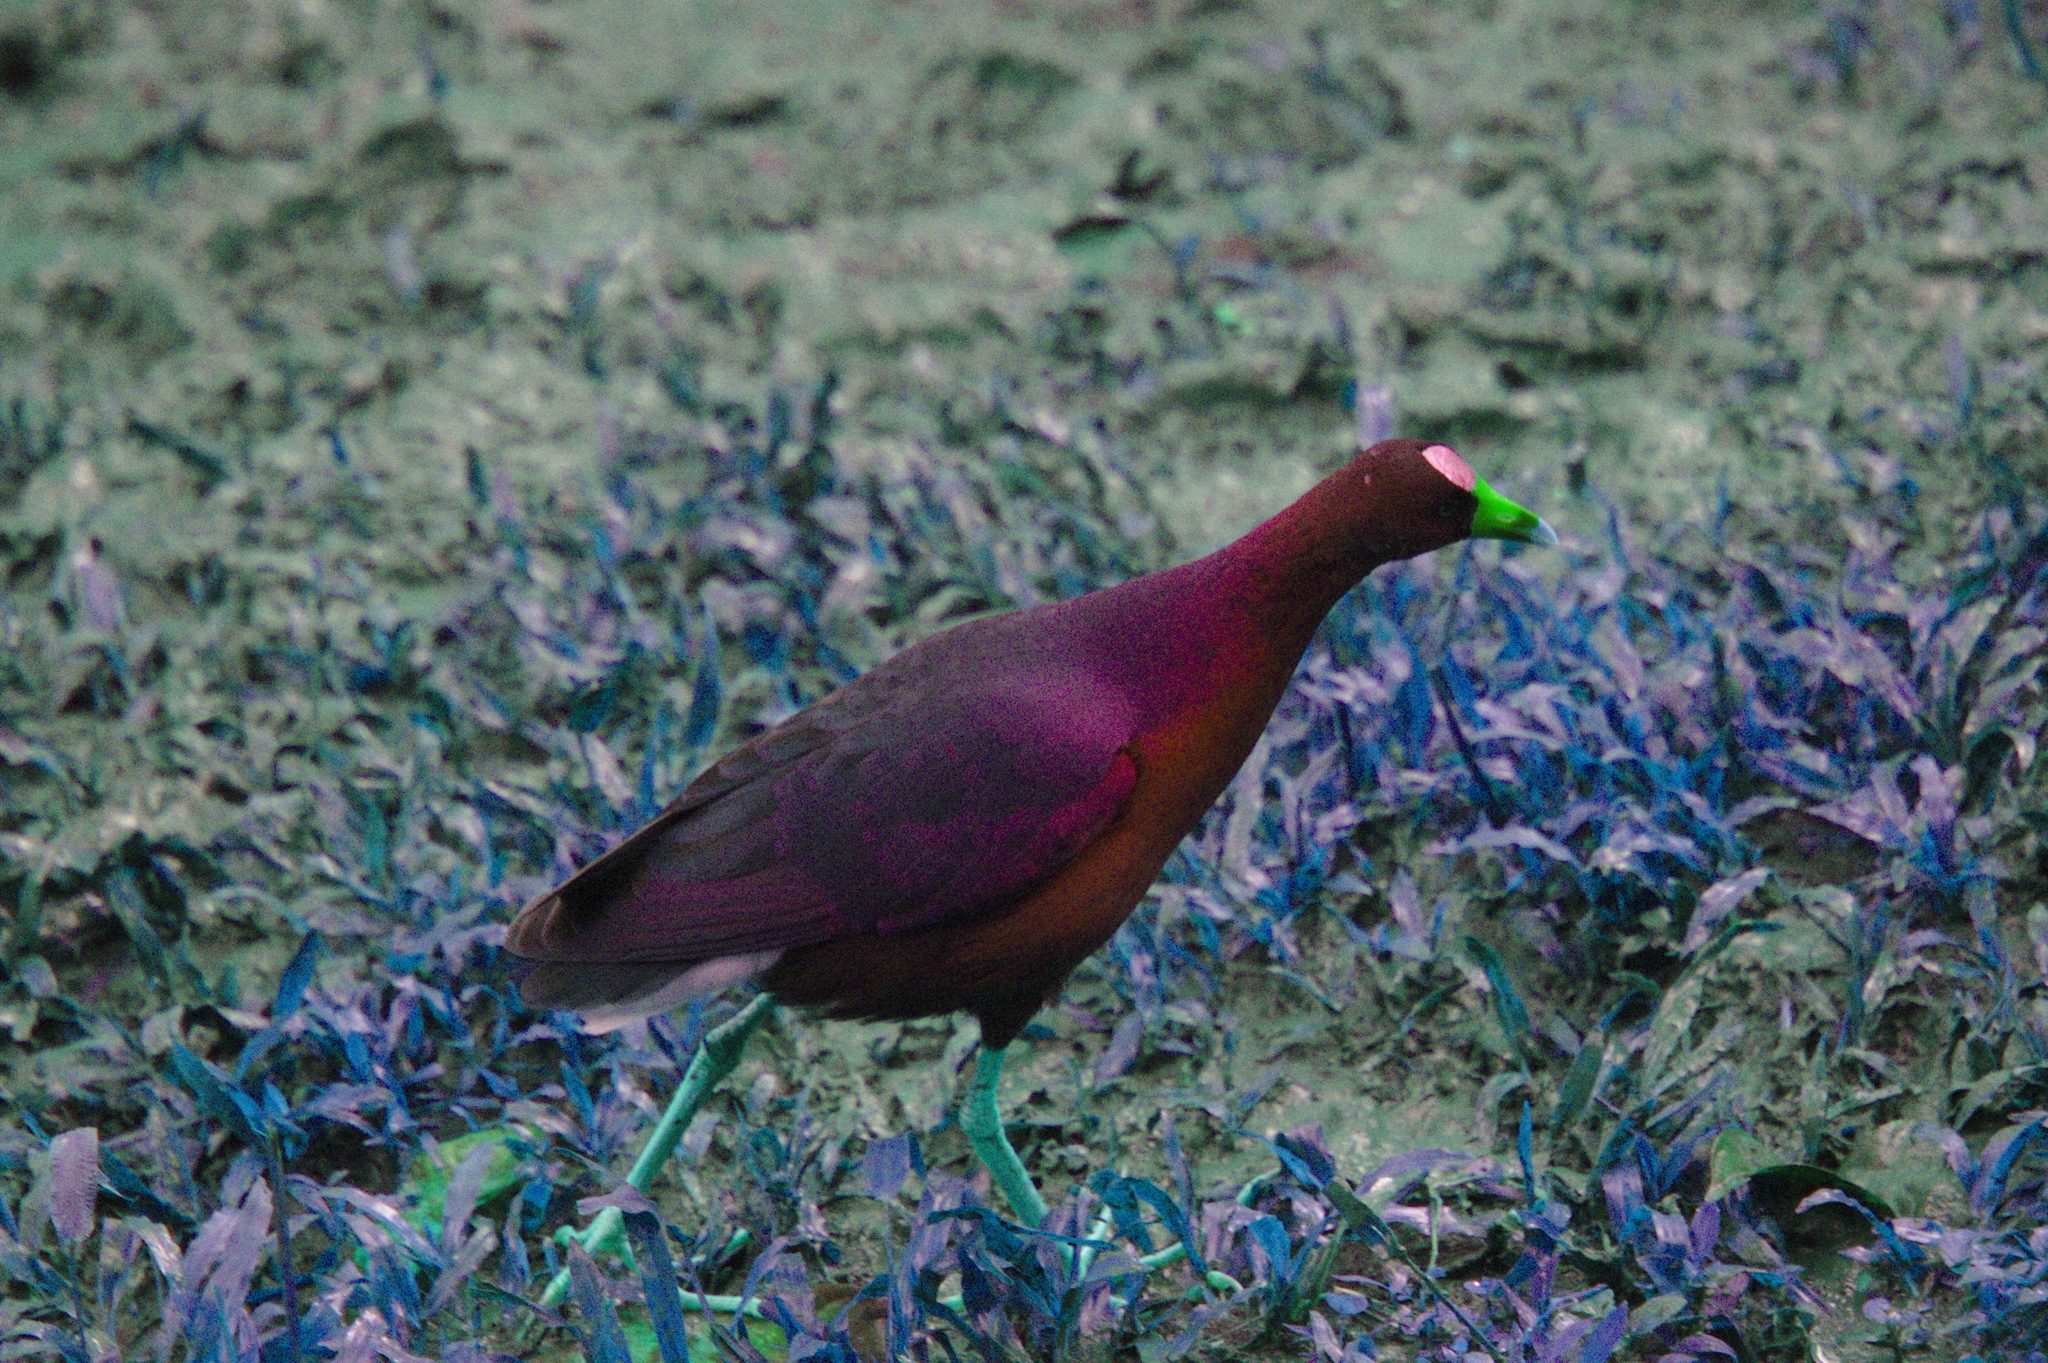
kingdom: Animalia
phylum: Chordata
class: Aves
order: Gruiformes
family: Rallidae
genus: Porphyrio
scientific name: Porphyrio martinica
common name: Purple gallinule
